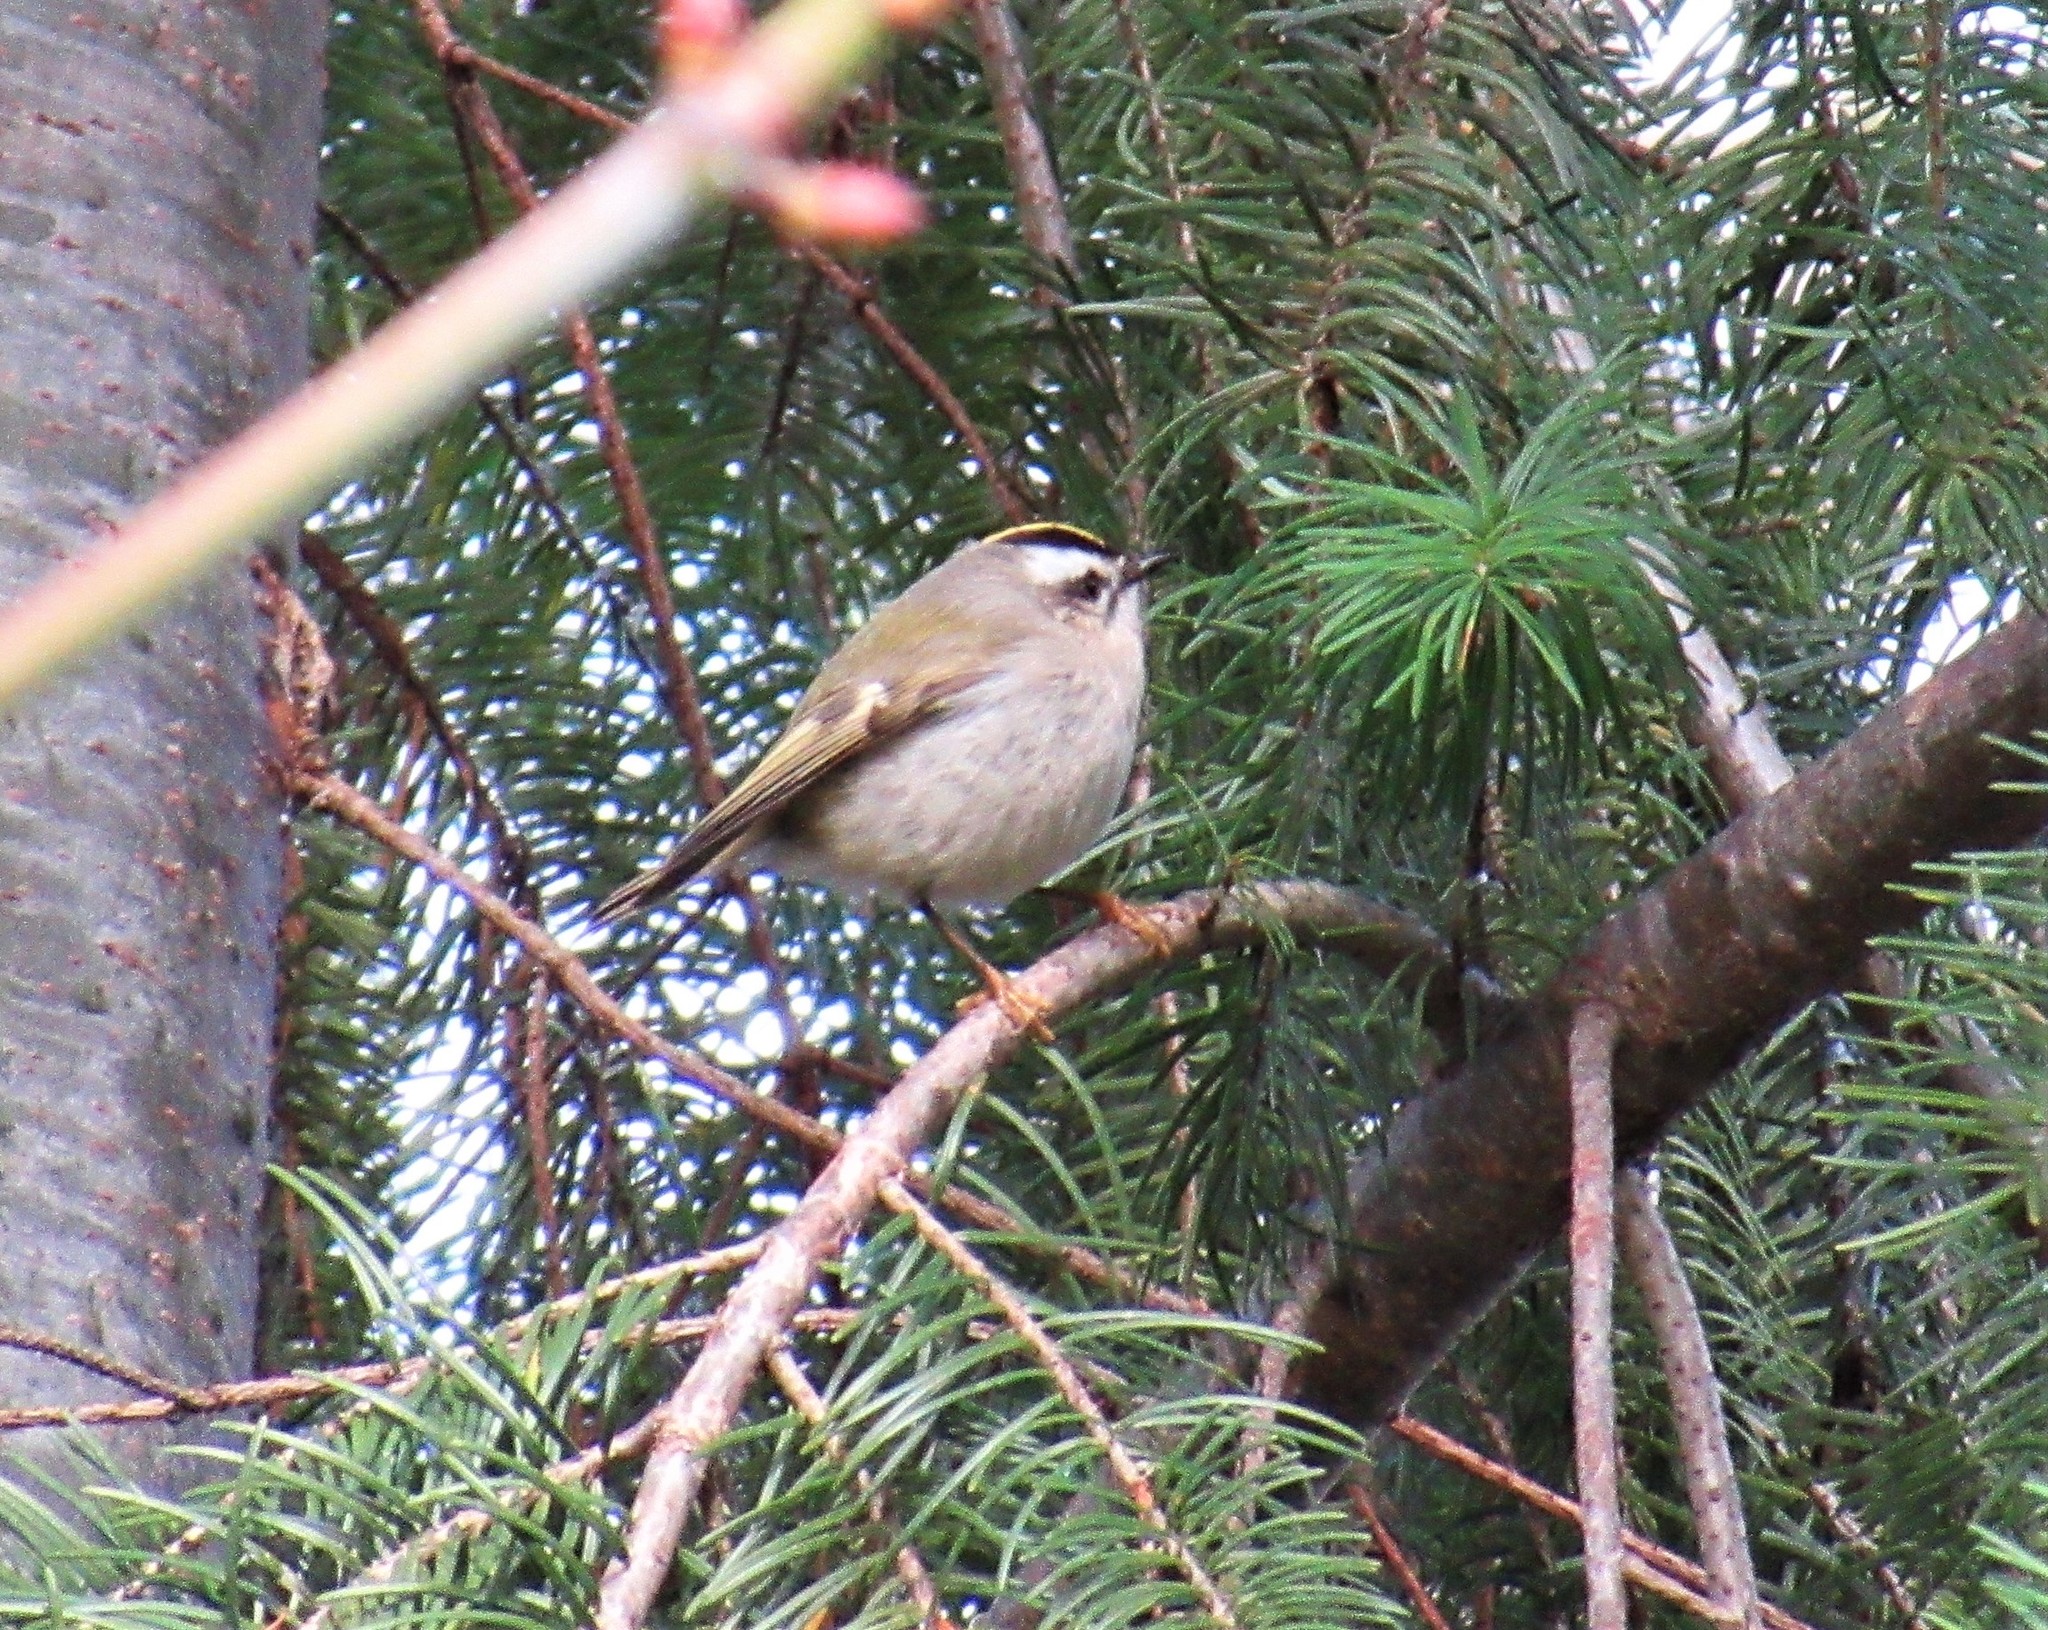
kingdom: Animalia
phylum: Chordata
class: Aves
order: Passeriformes
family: Regulidae
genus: Regulus
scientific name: Regulus satrapa
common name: Golden-crowned kinglet
